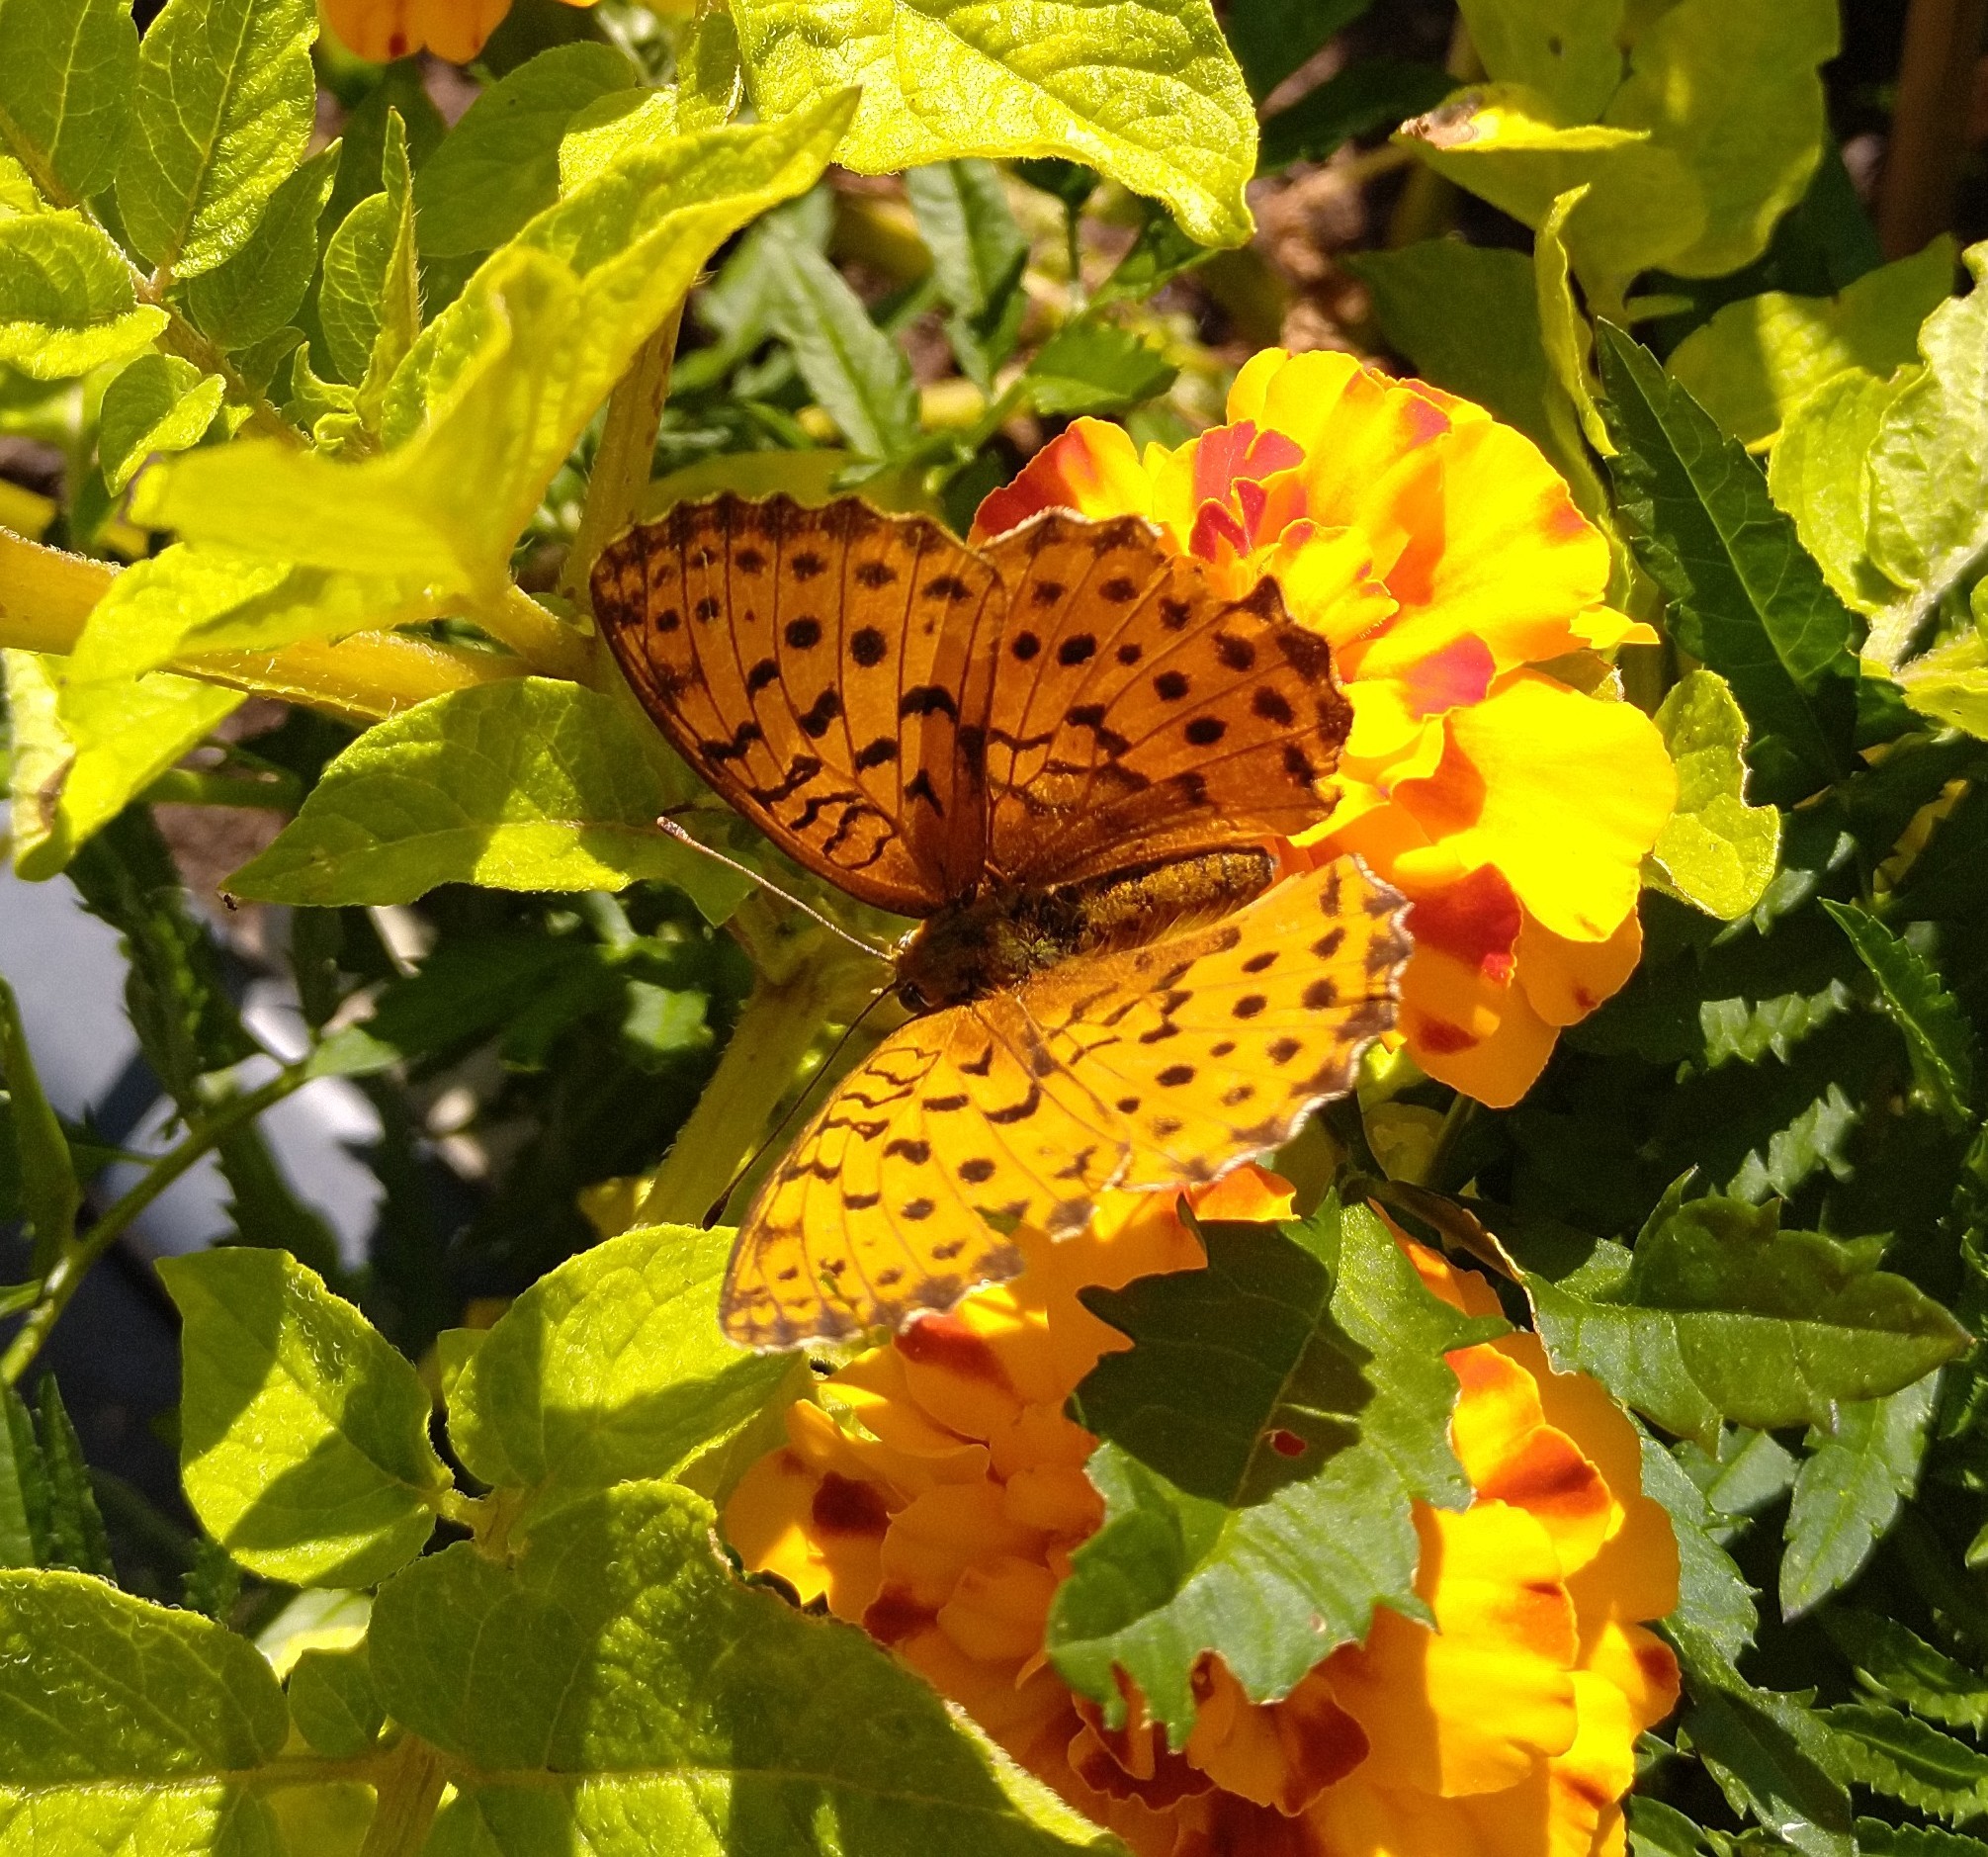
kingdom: Animalia
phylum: Arthropoda
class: Insecta
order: Lepidoptera
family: Nymphalidae
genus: Brenthis
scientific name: Brenthis daphne
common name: Marbled fritillary
